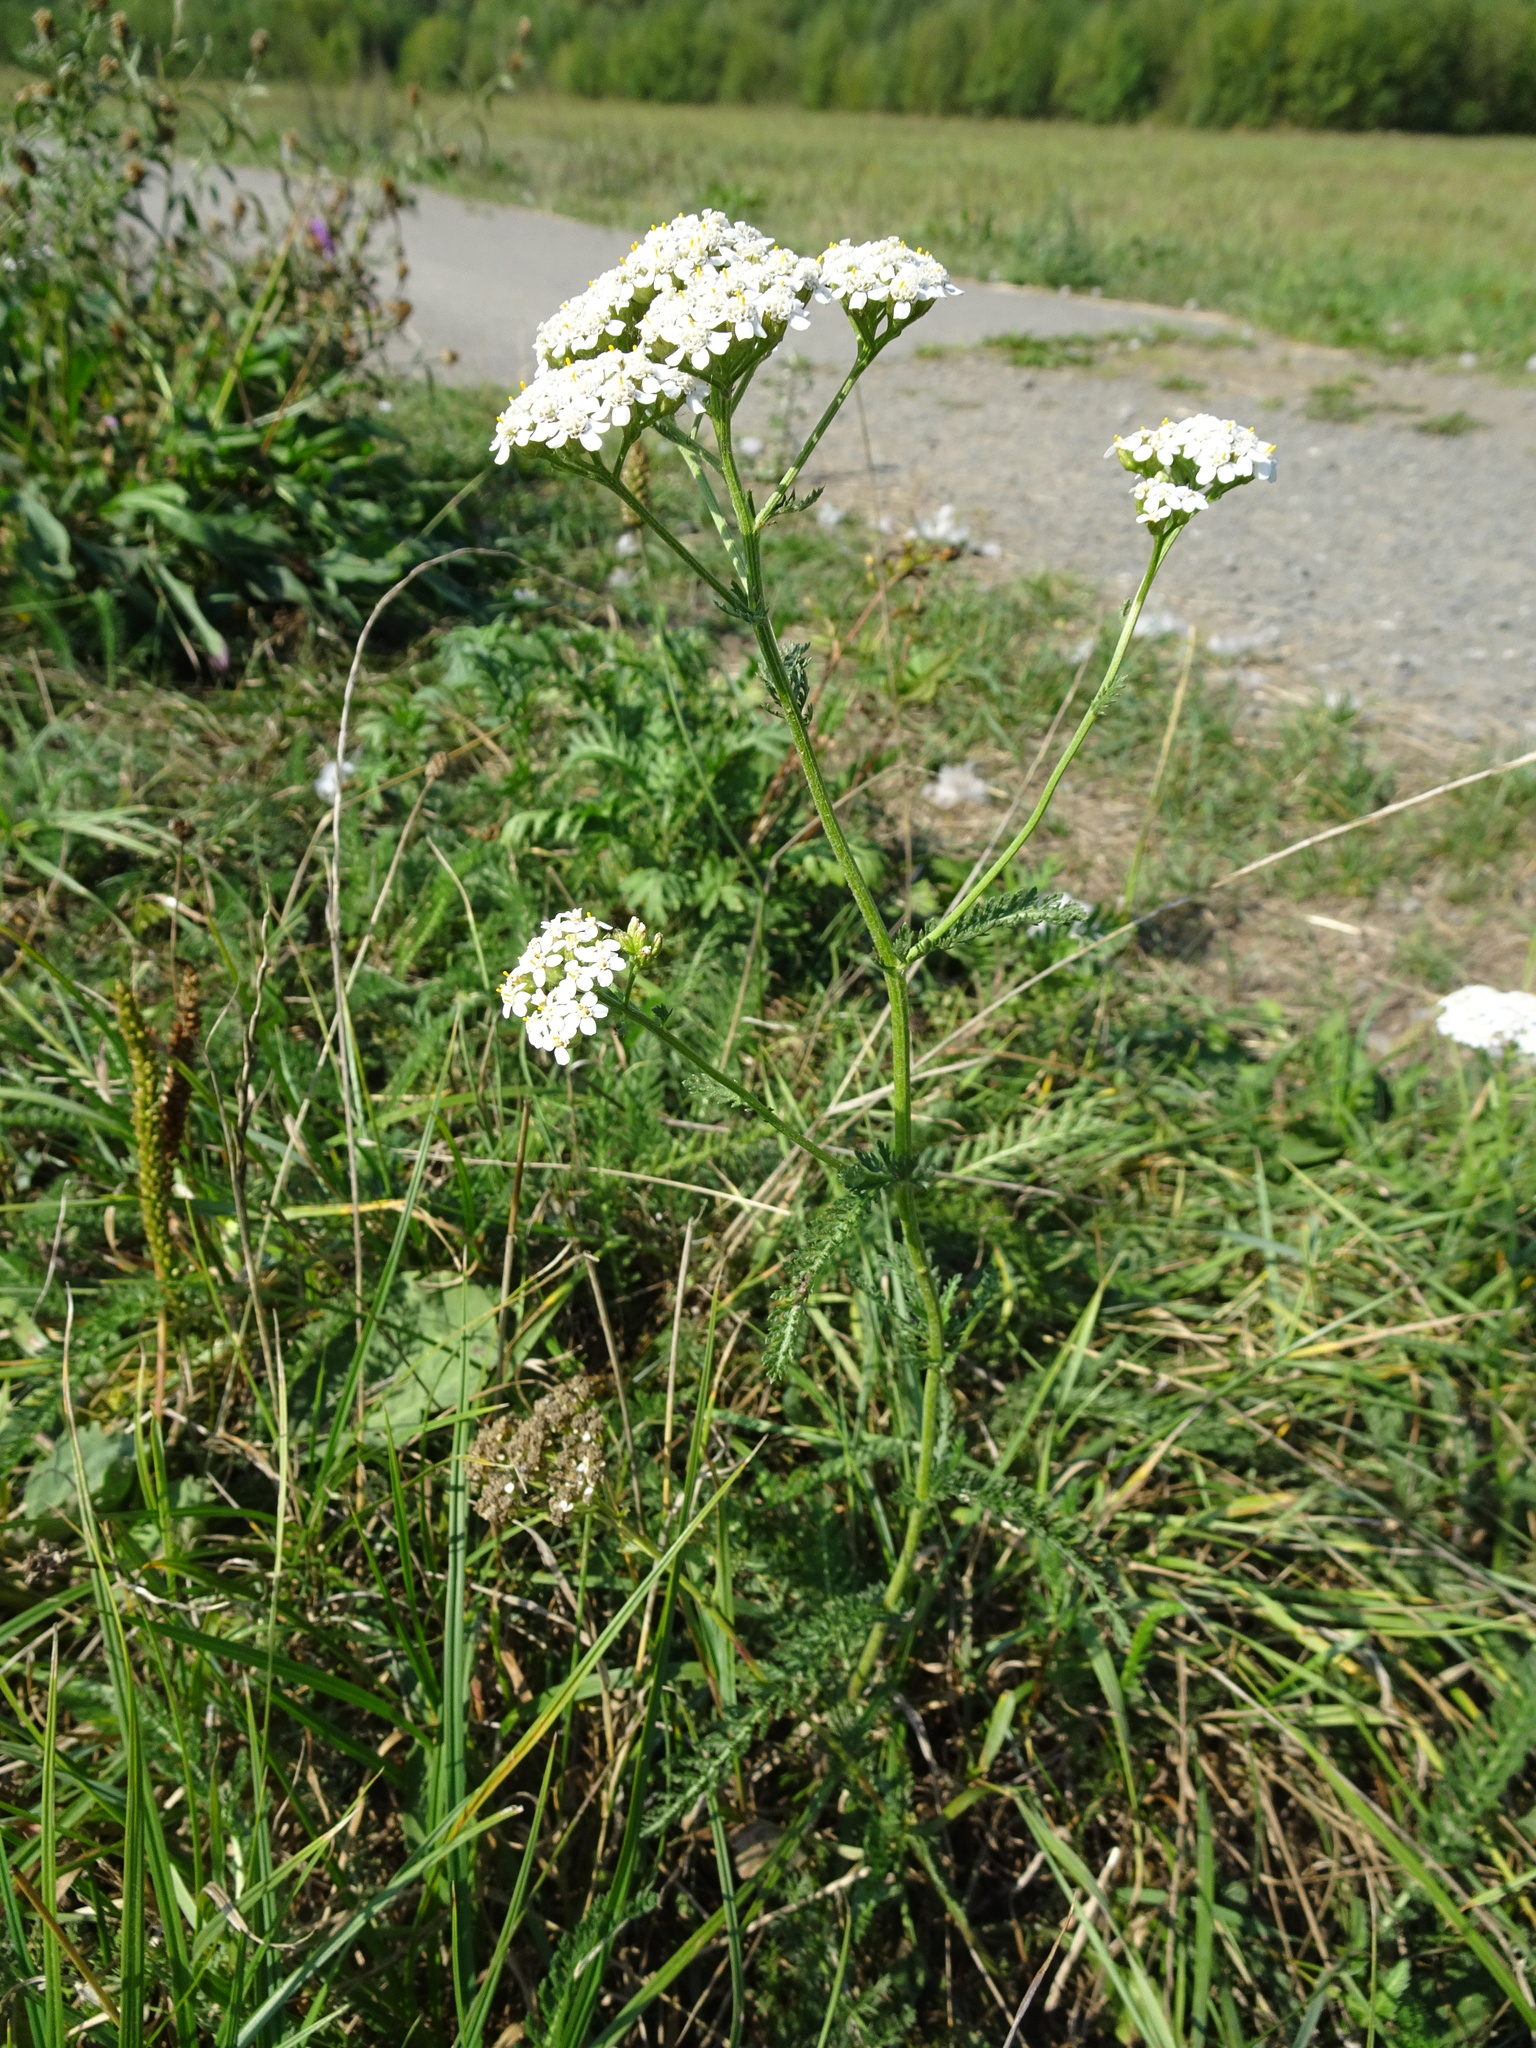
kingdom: Plantae
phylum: Tracheophyta
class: Magnoliopsida
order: Asterales
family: Asteraceae
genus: Achillea
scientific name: Achillea millefolium
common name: Yarrow
